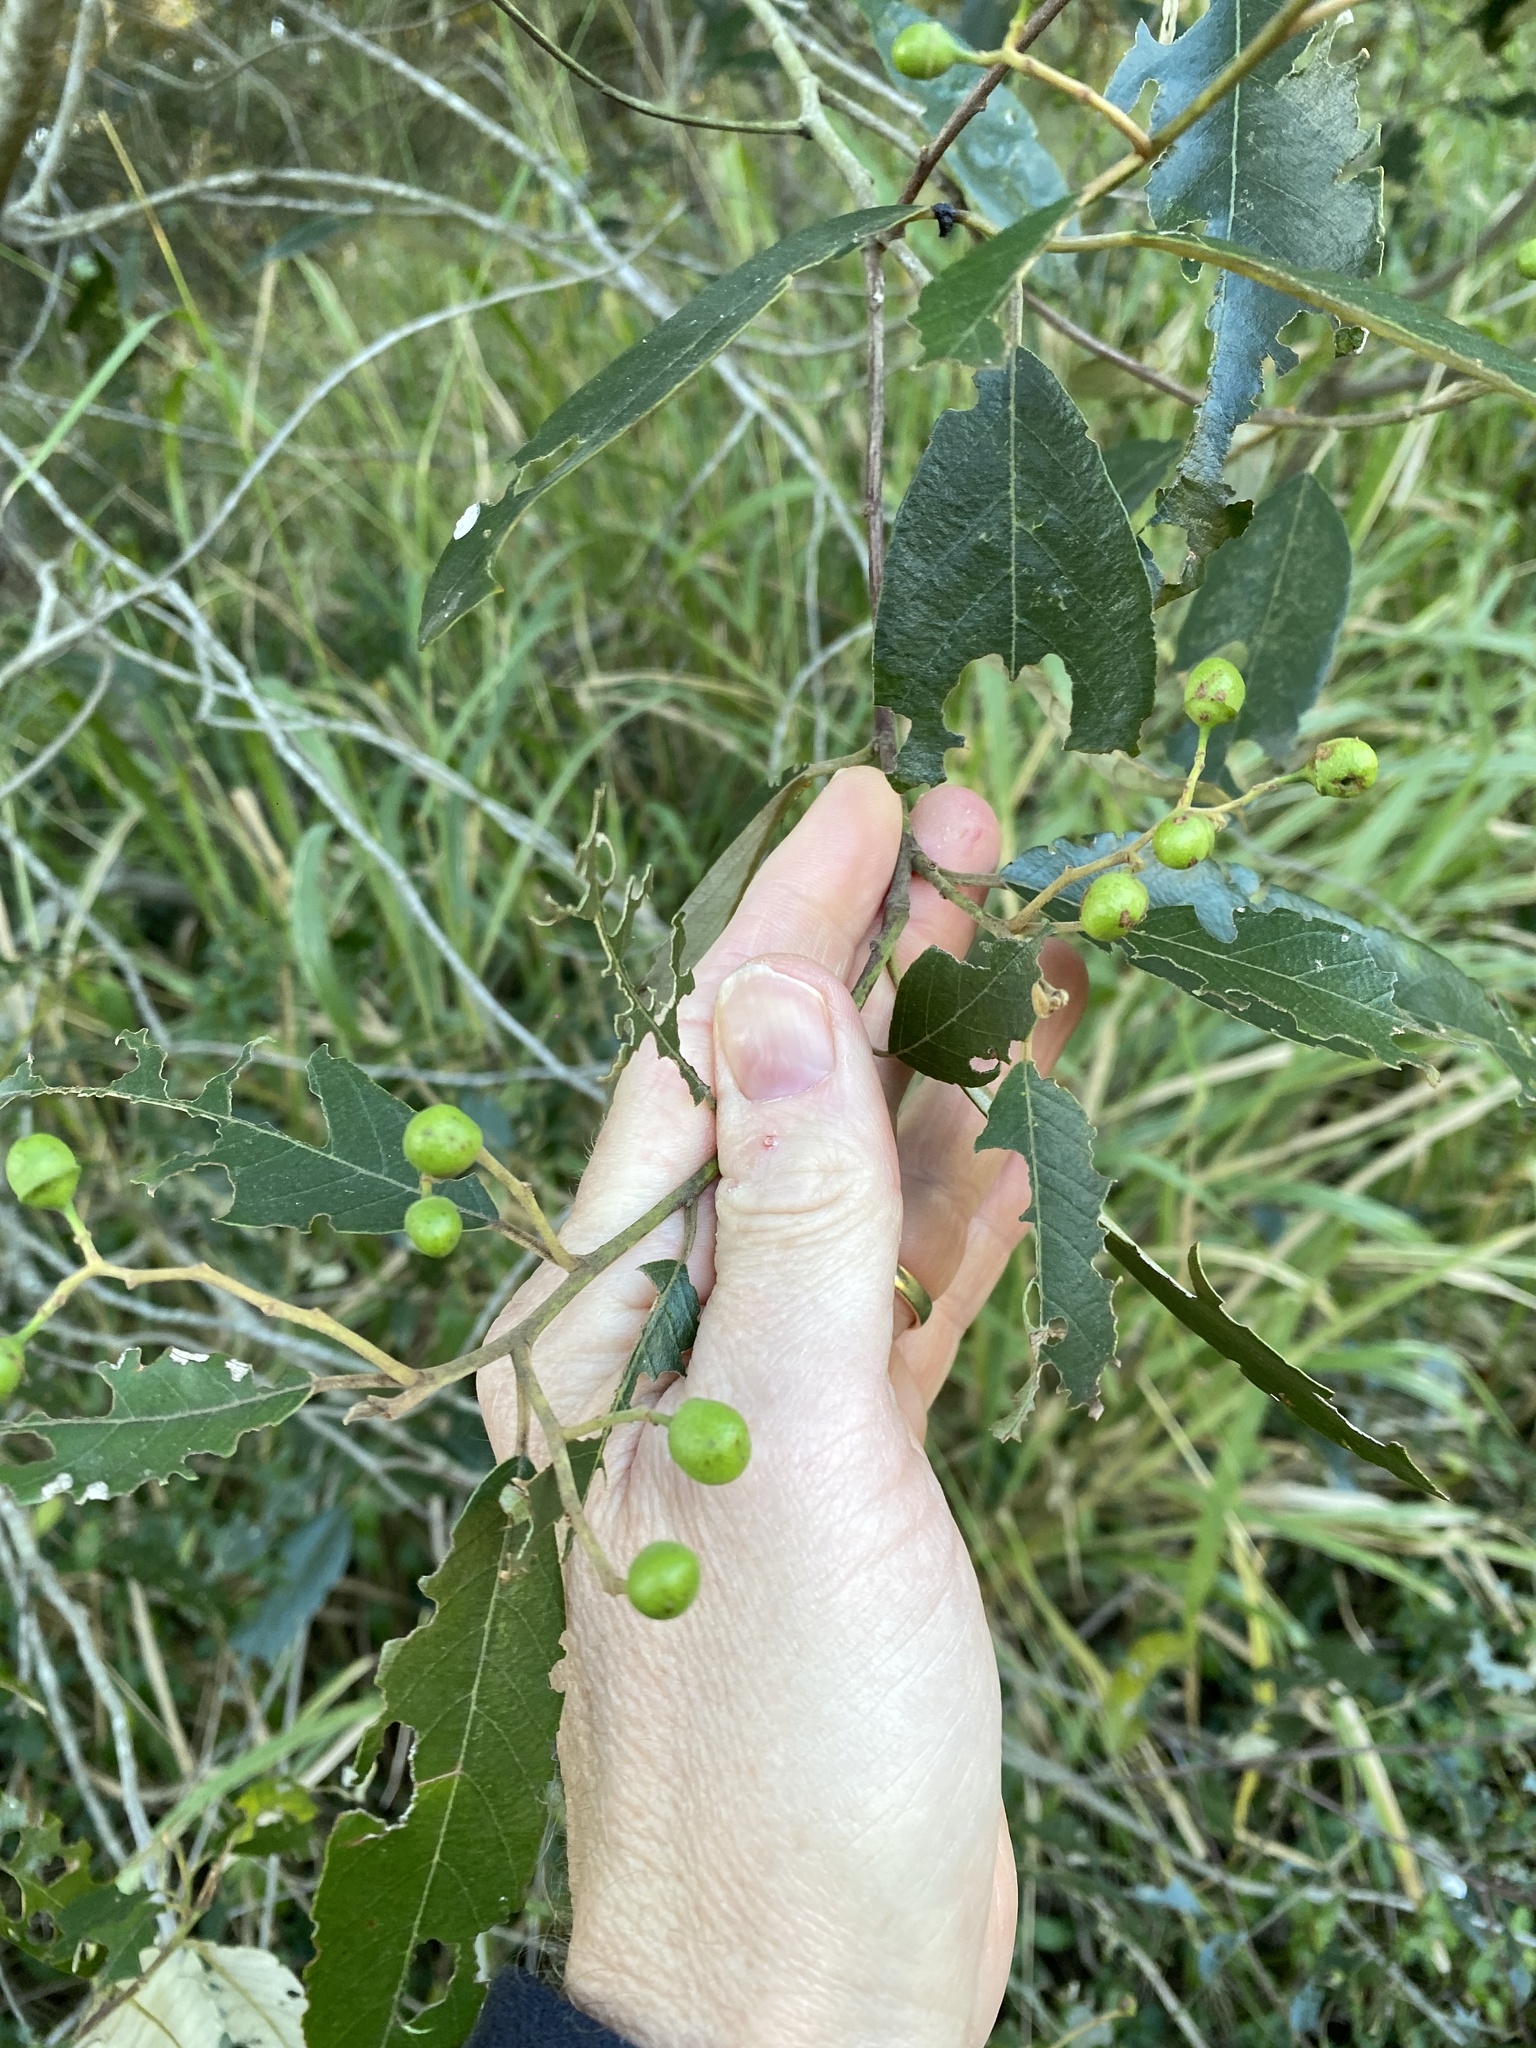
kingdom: Plantae
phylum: Tracheophyta
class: Magnoliopsida
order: Rosales
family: Rhamnaceae
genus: Alphitonia
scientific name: Alphitonia excelsa
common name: Red ash
